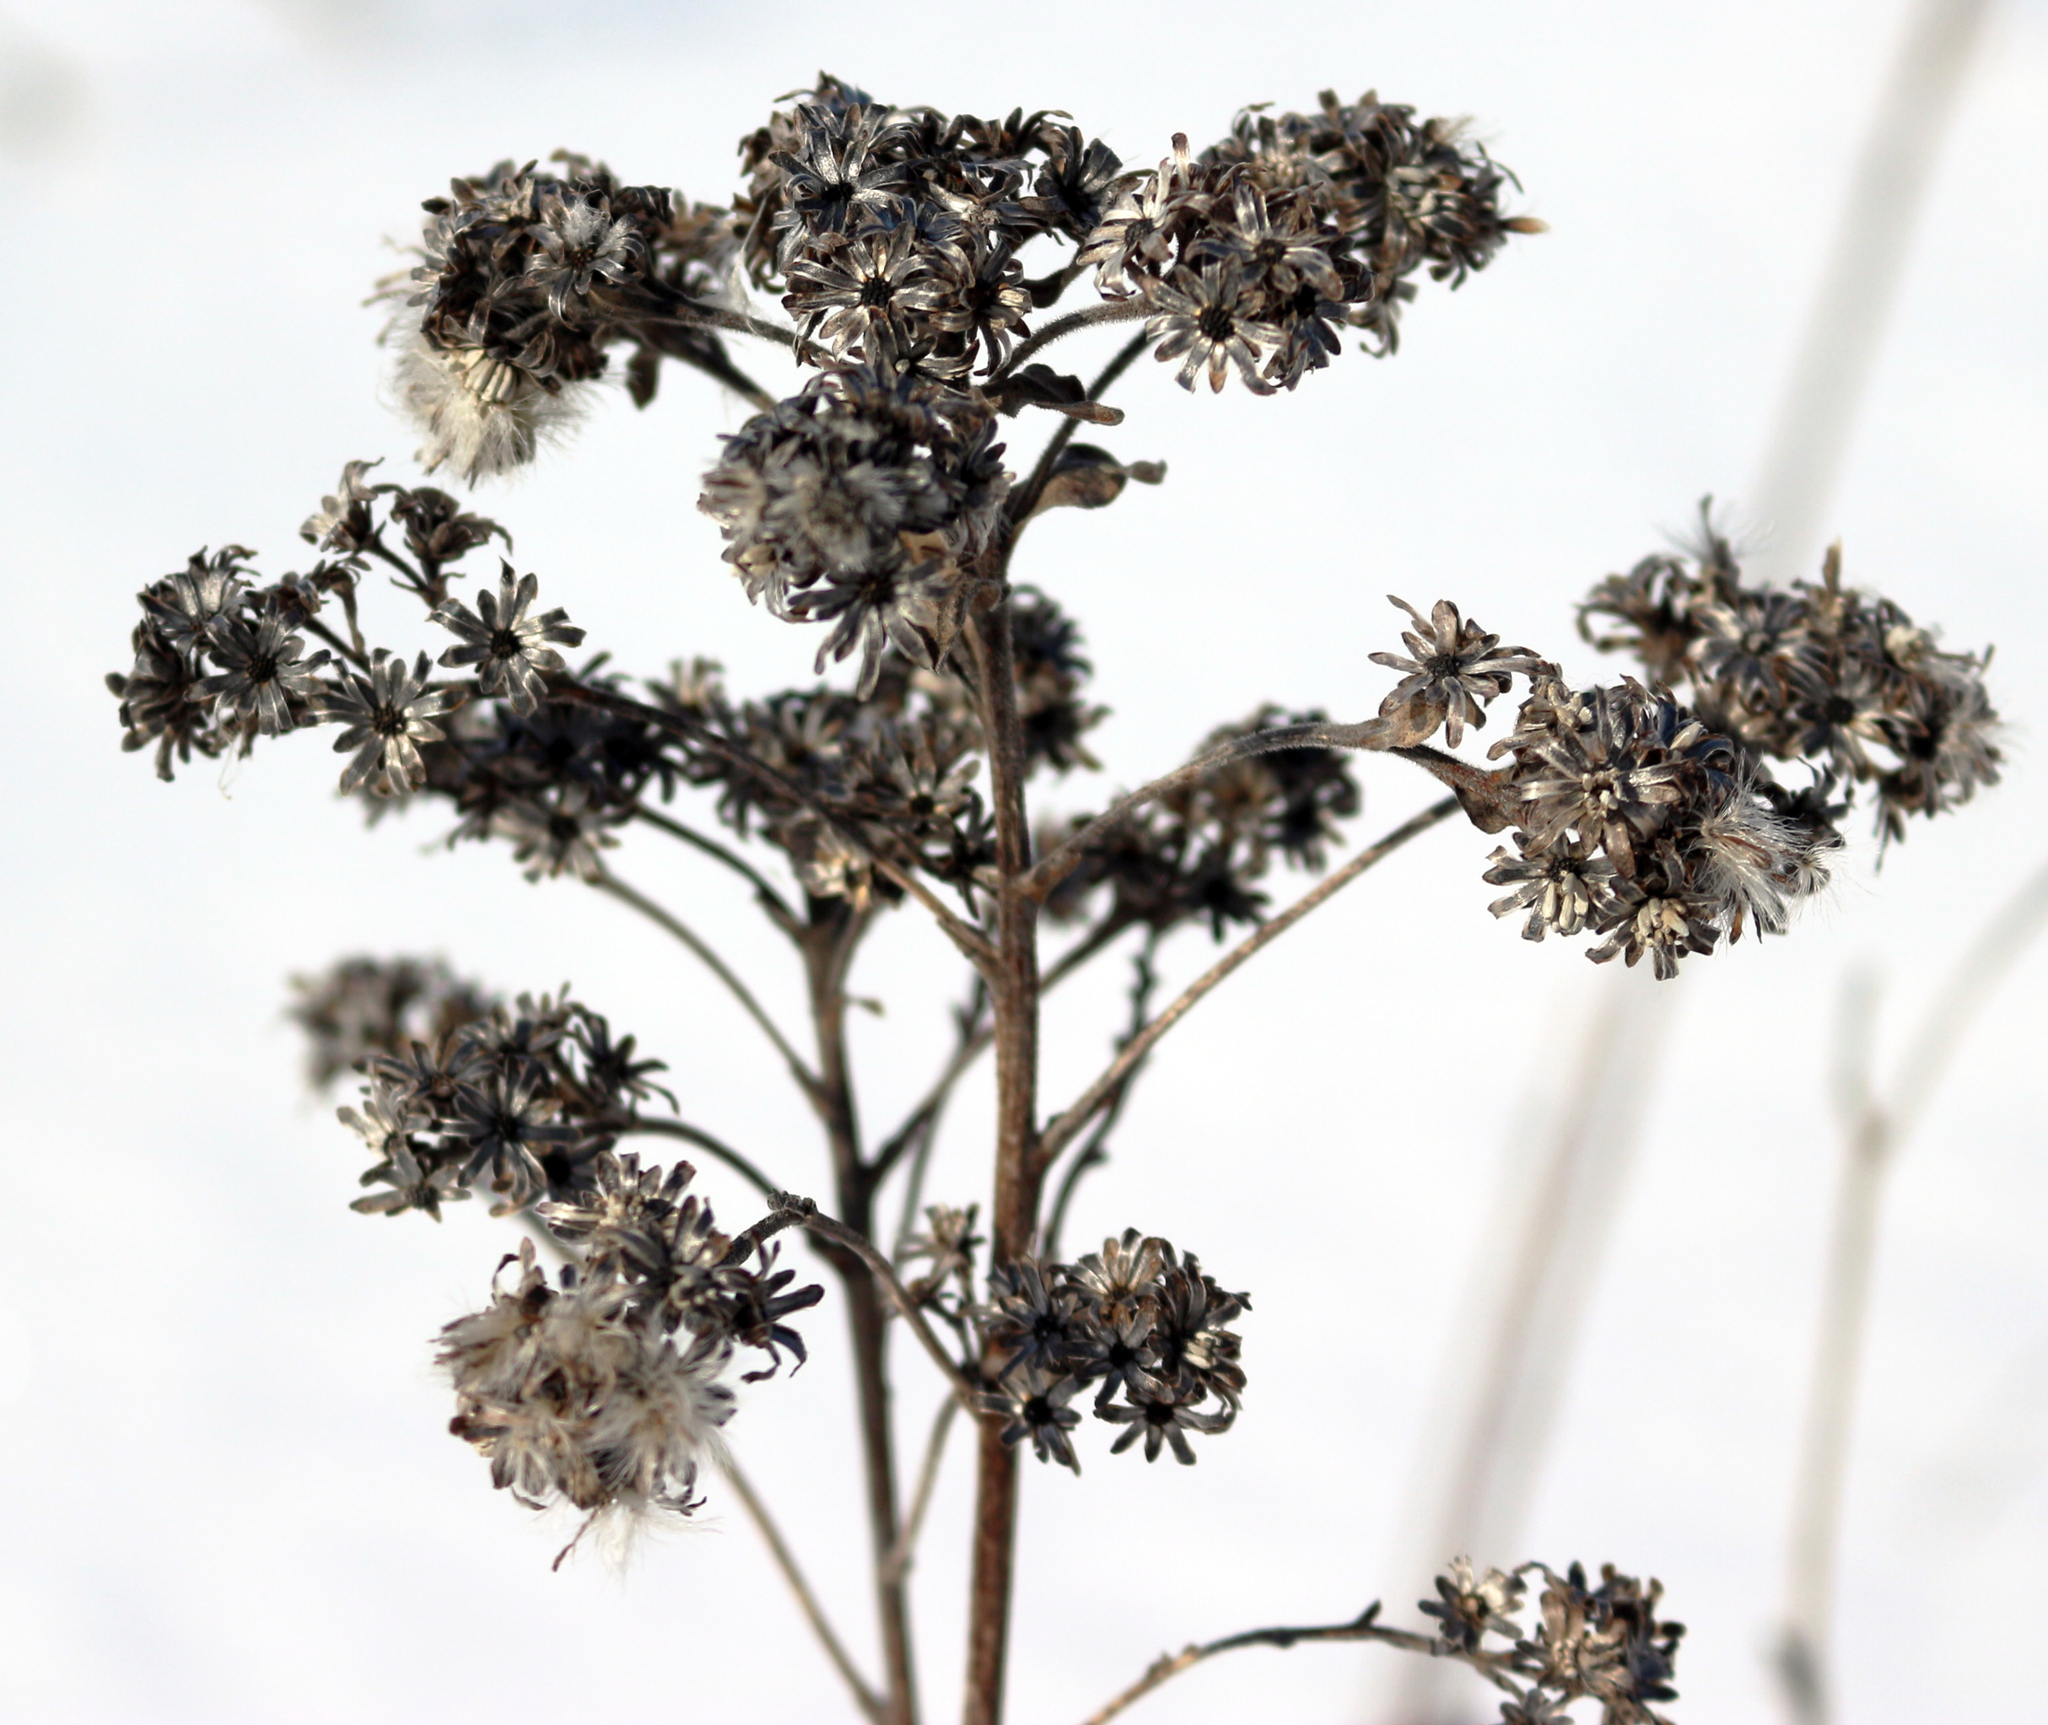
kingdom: Plantae
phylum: Tracheophyta
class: Magnoliopsida
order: Asterales
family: Asteraceae
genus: Solidago
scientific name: Solidago rigida
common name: Rigid goldenrod
